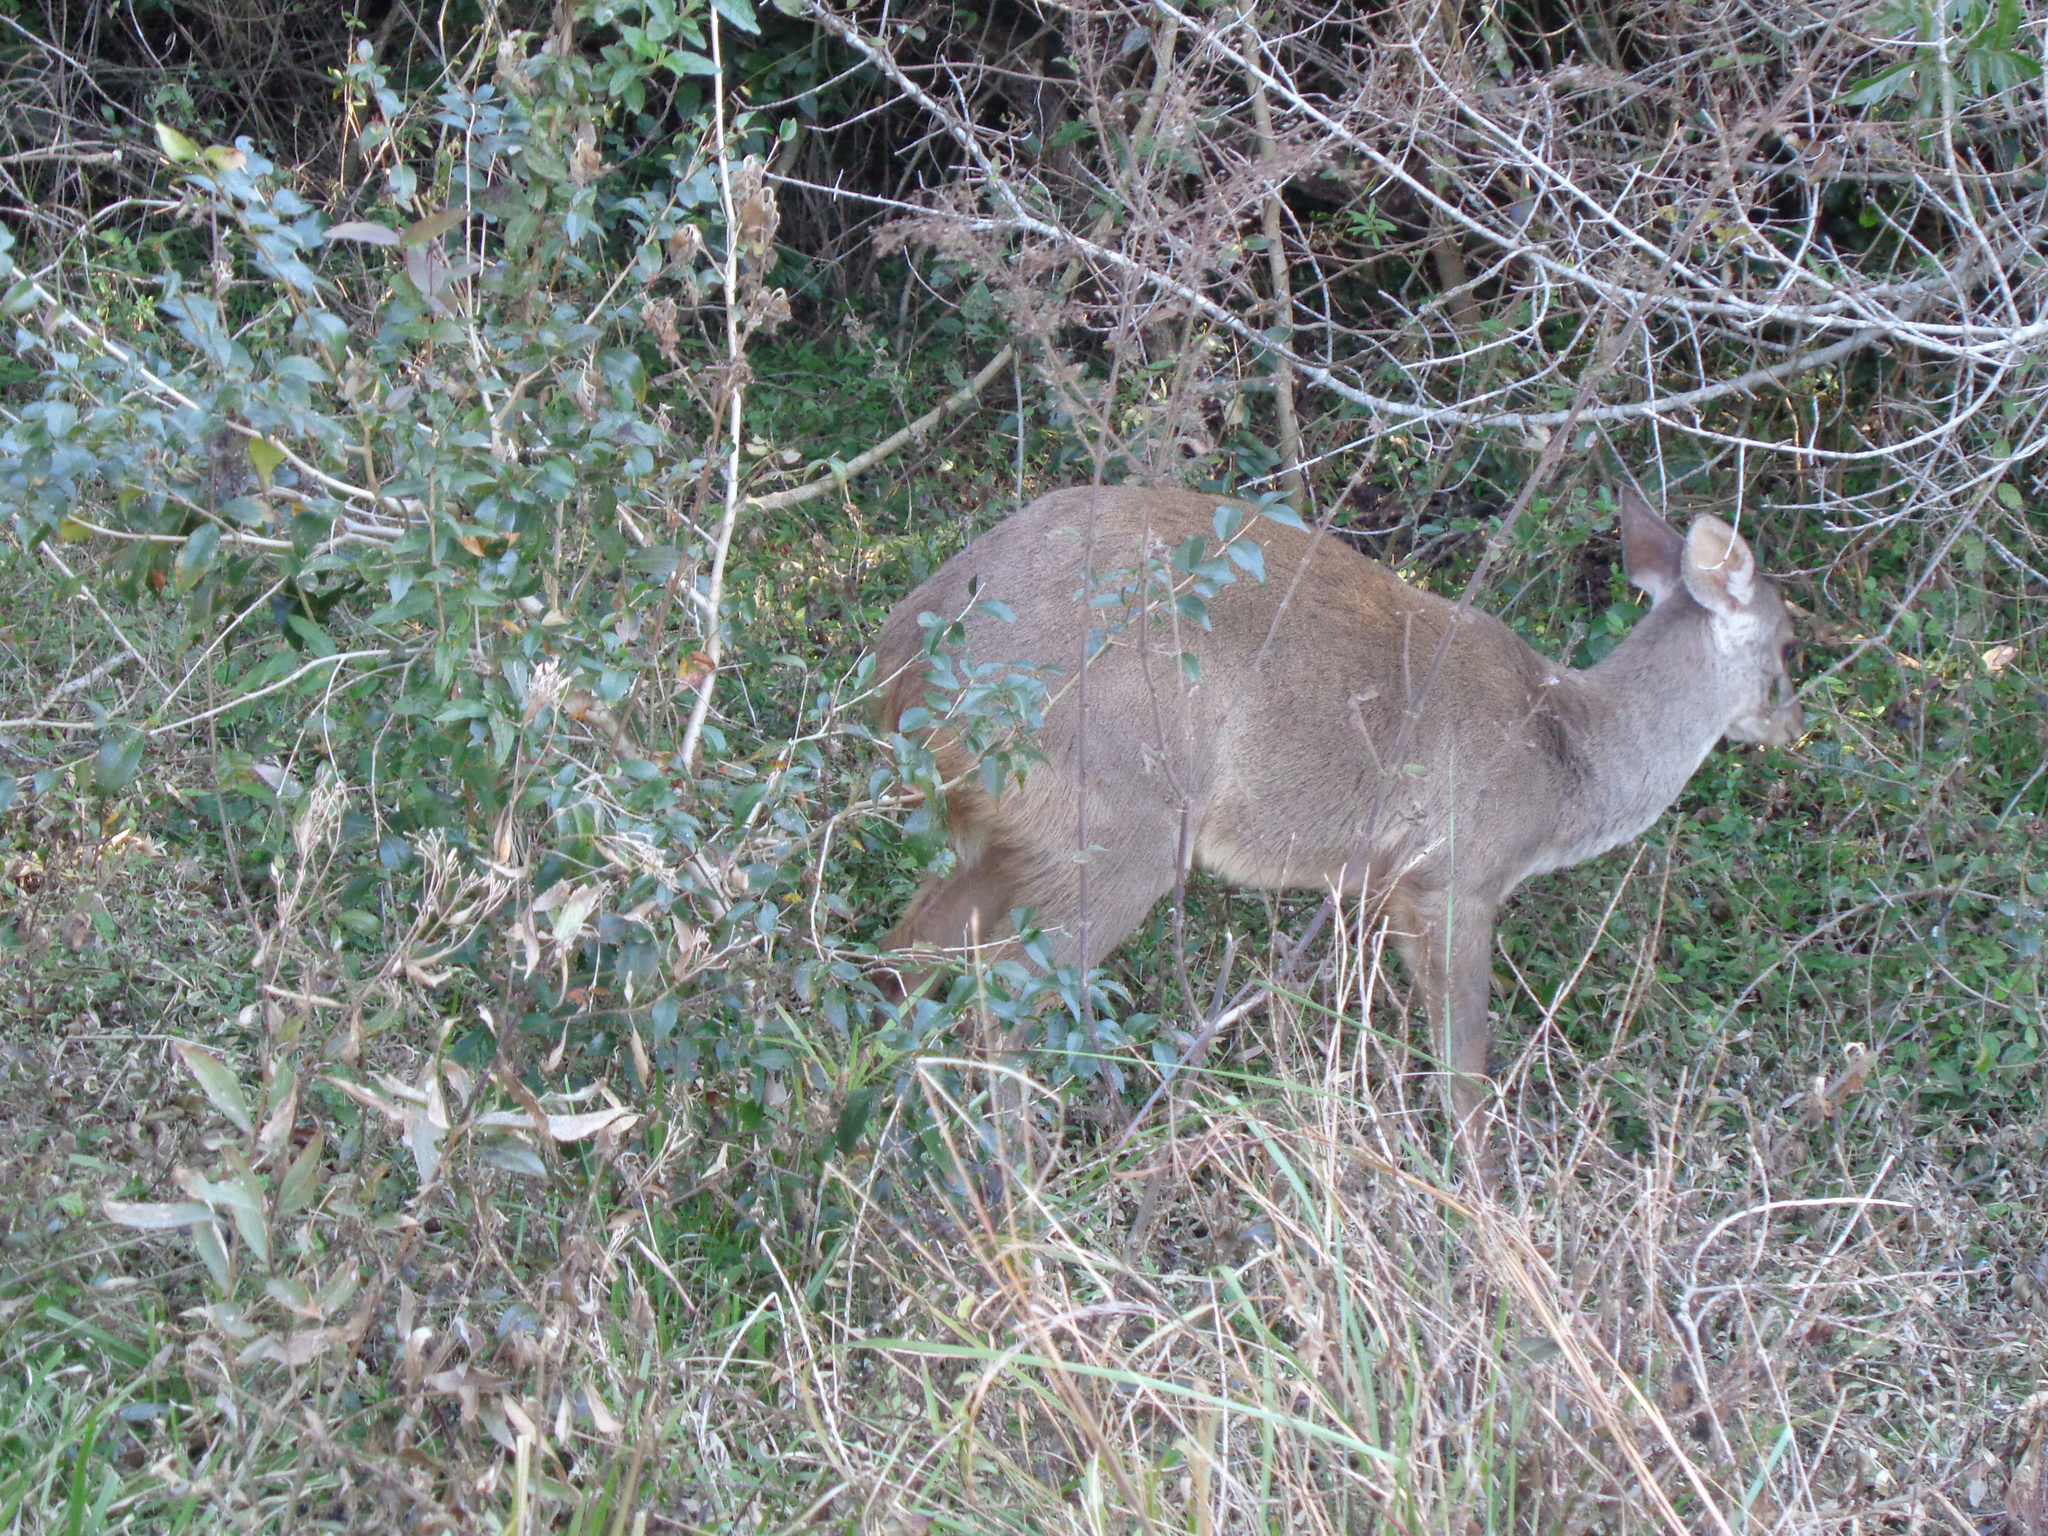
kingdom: Animalia
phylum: Chordata
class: Mammalia
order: Artiodactyla
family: Cervidae
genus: Mazama
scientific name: Mazama gouazoubira
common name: Gray brocket
